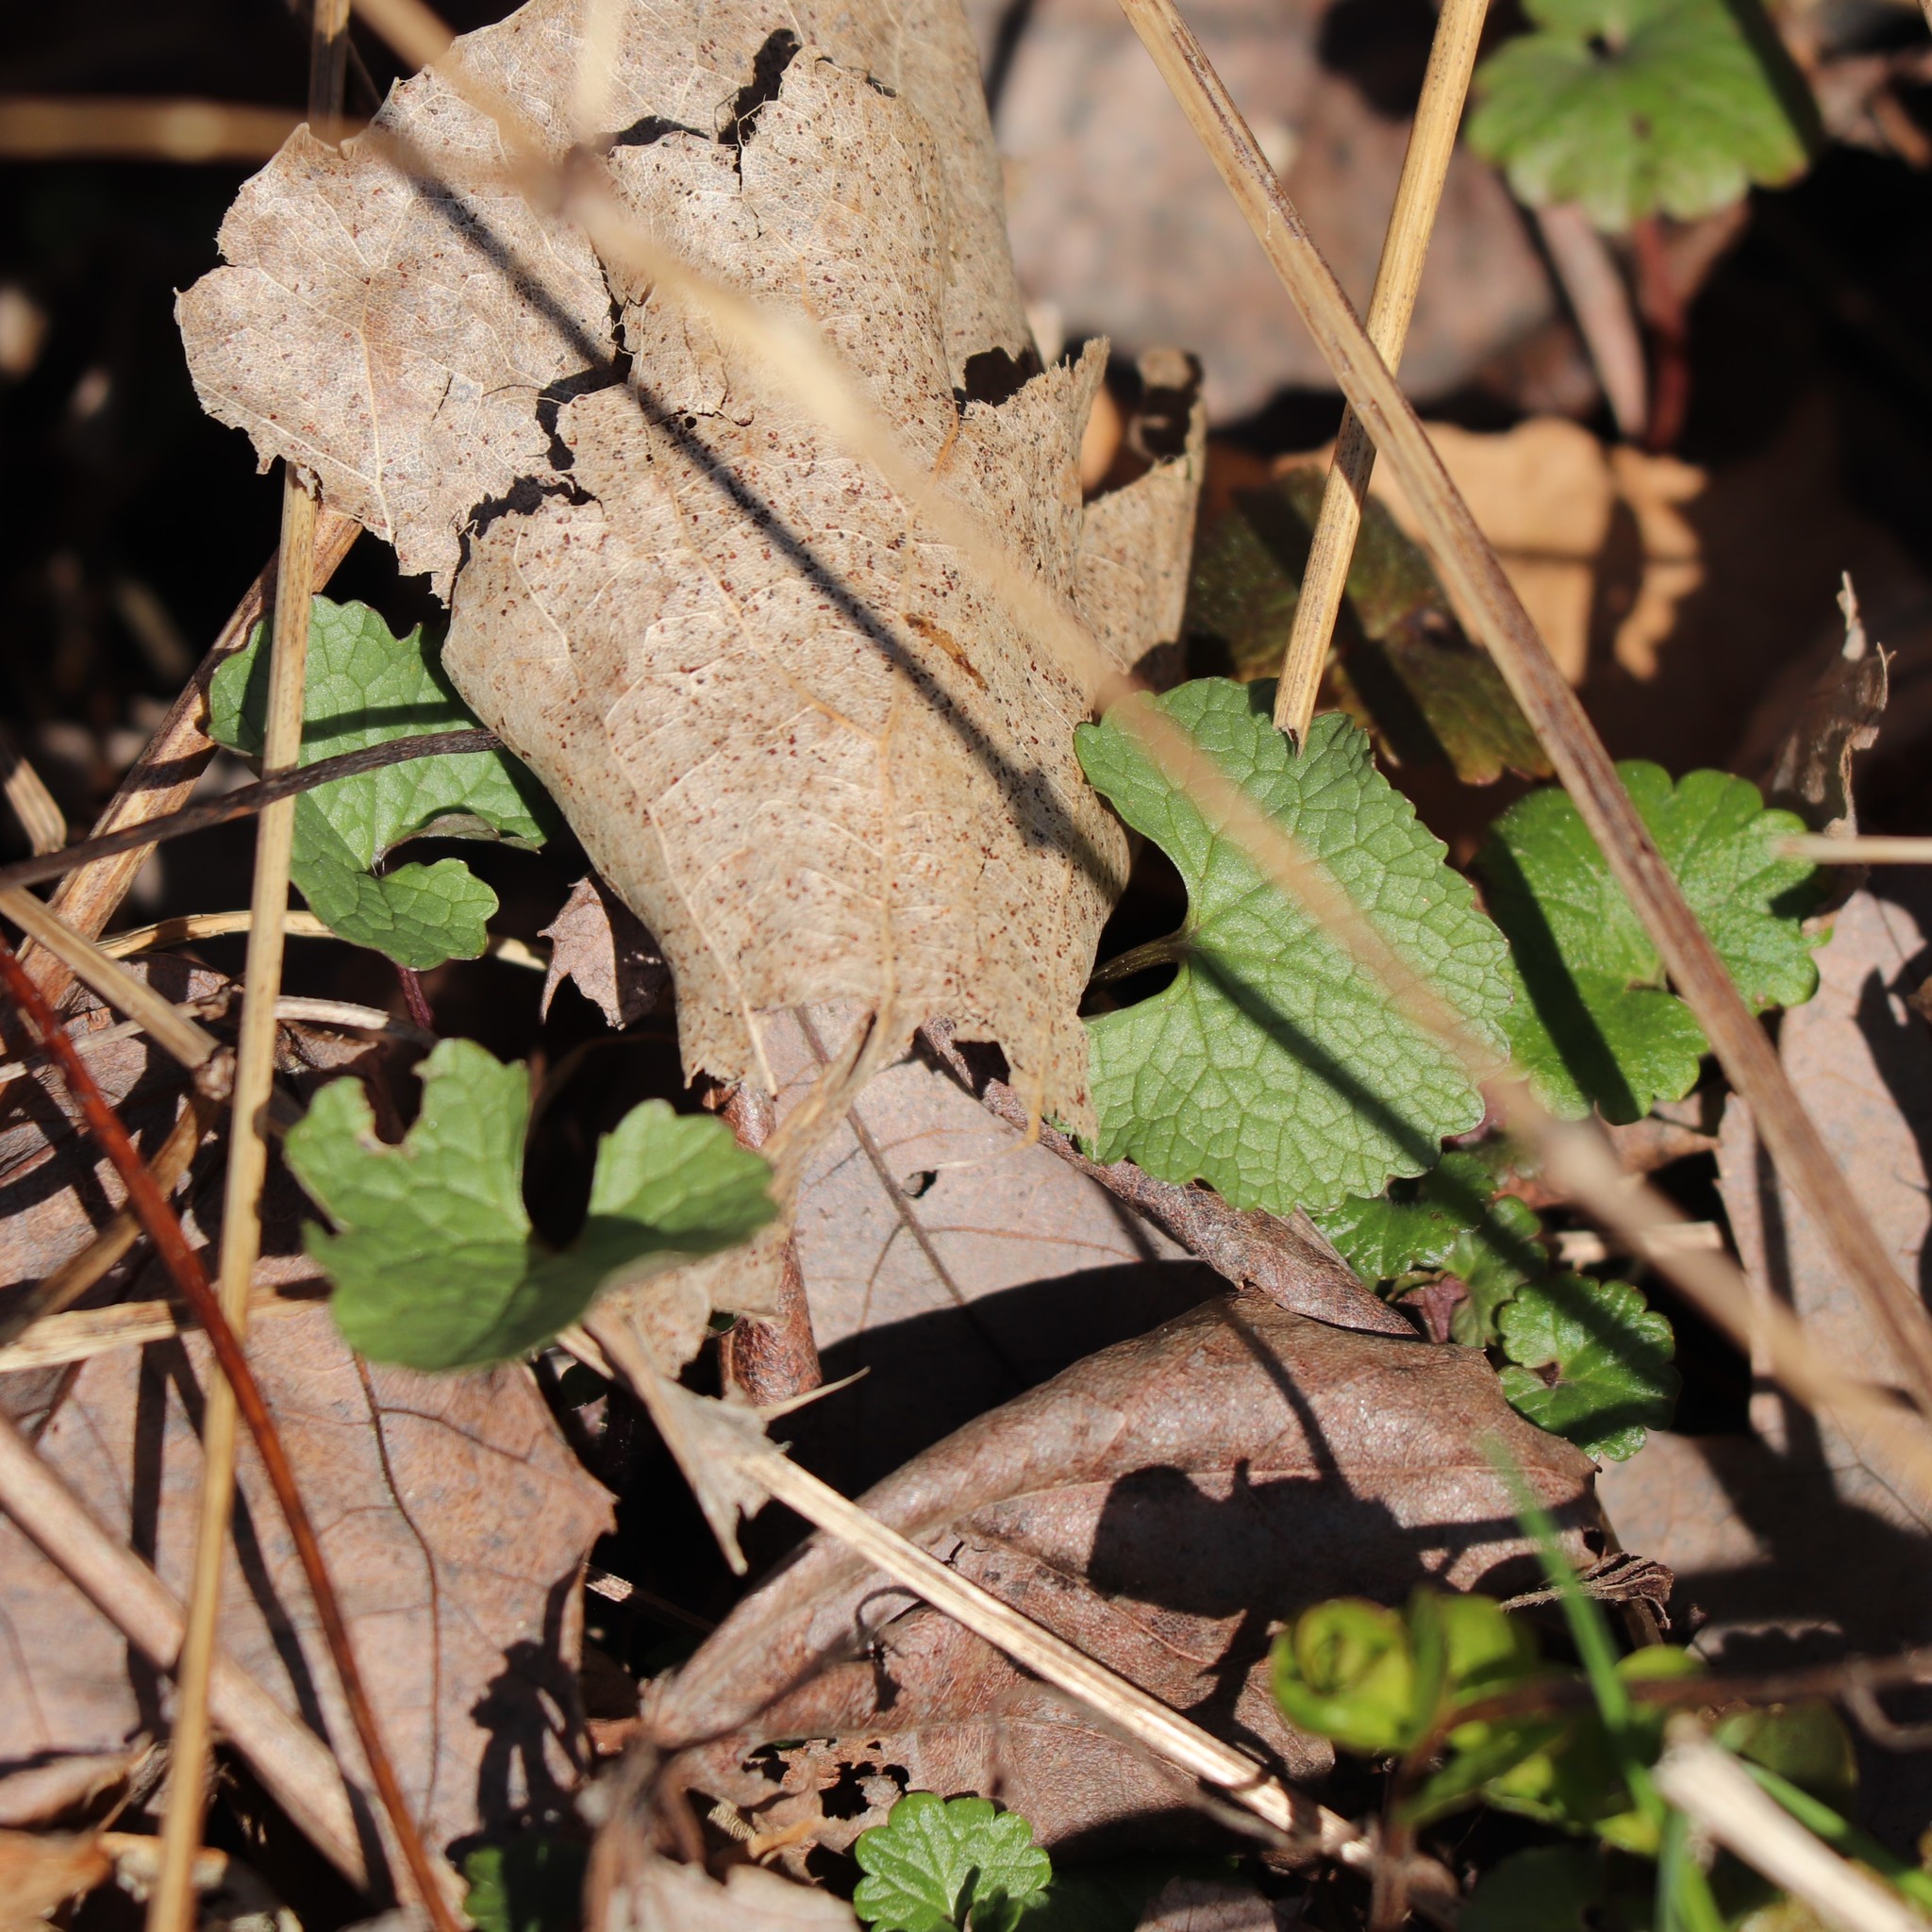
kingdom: Plantae
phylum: Tracheophyta
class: Magnoliopsida
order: Brassicales
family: Brassicaceae
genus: Alliaria
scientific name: Alliaria petiolata
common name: Garlic mustard
